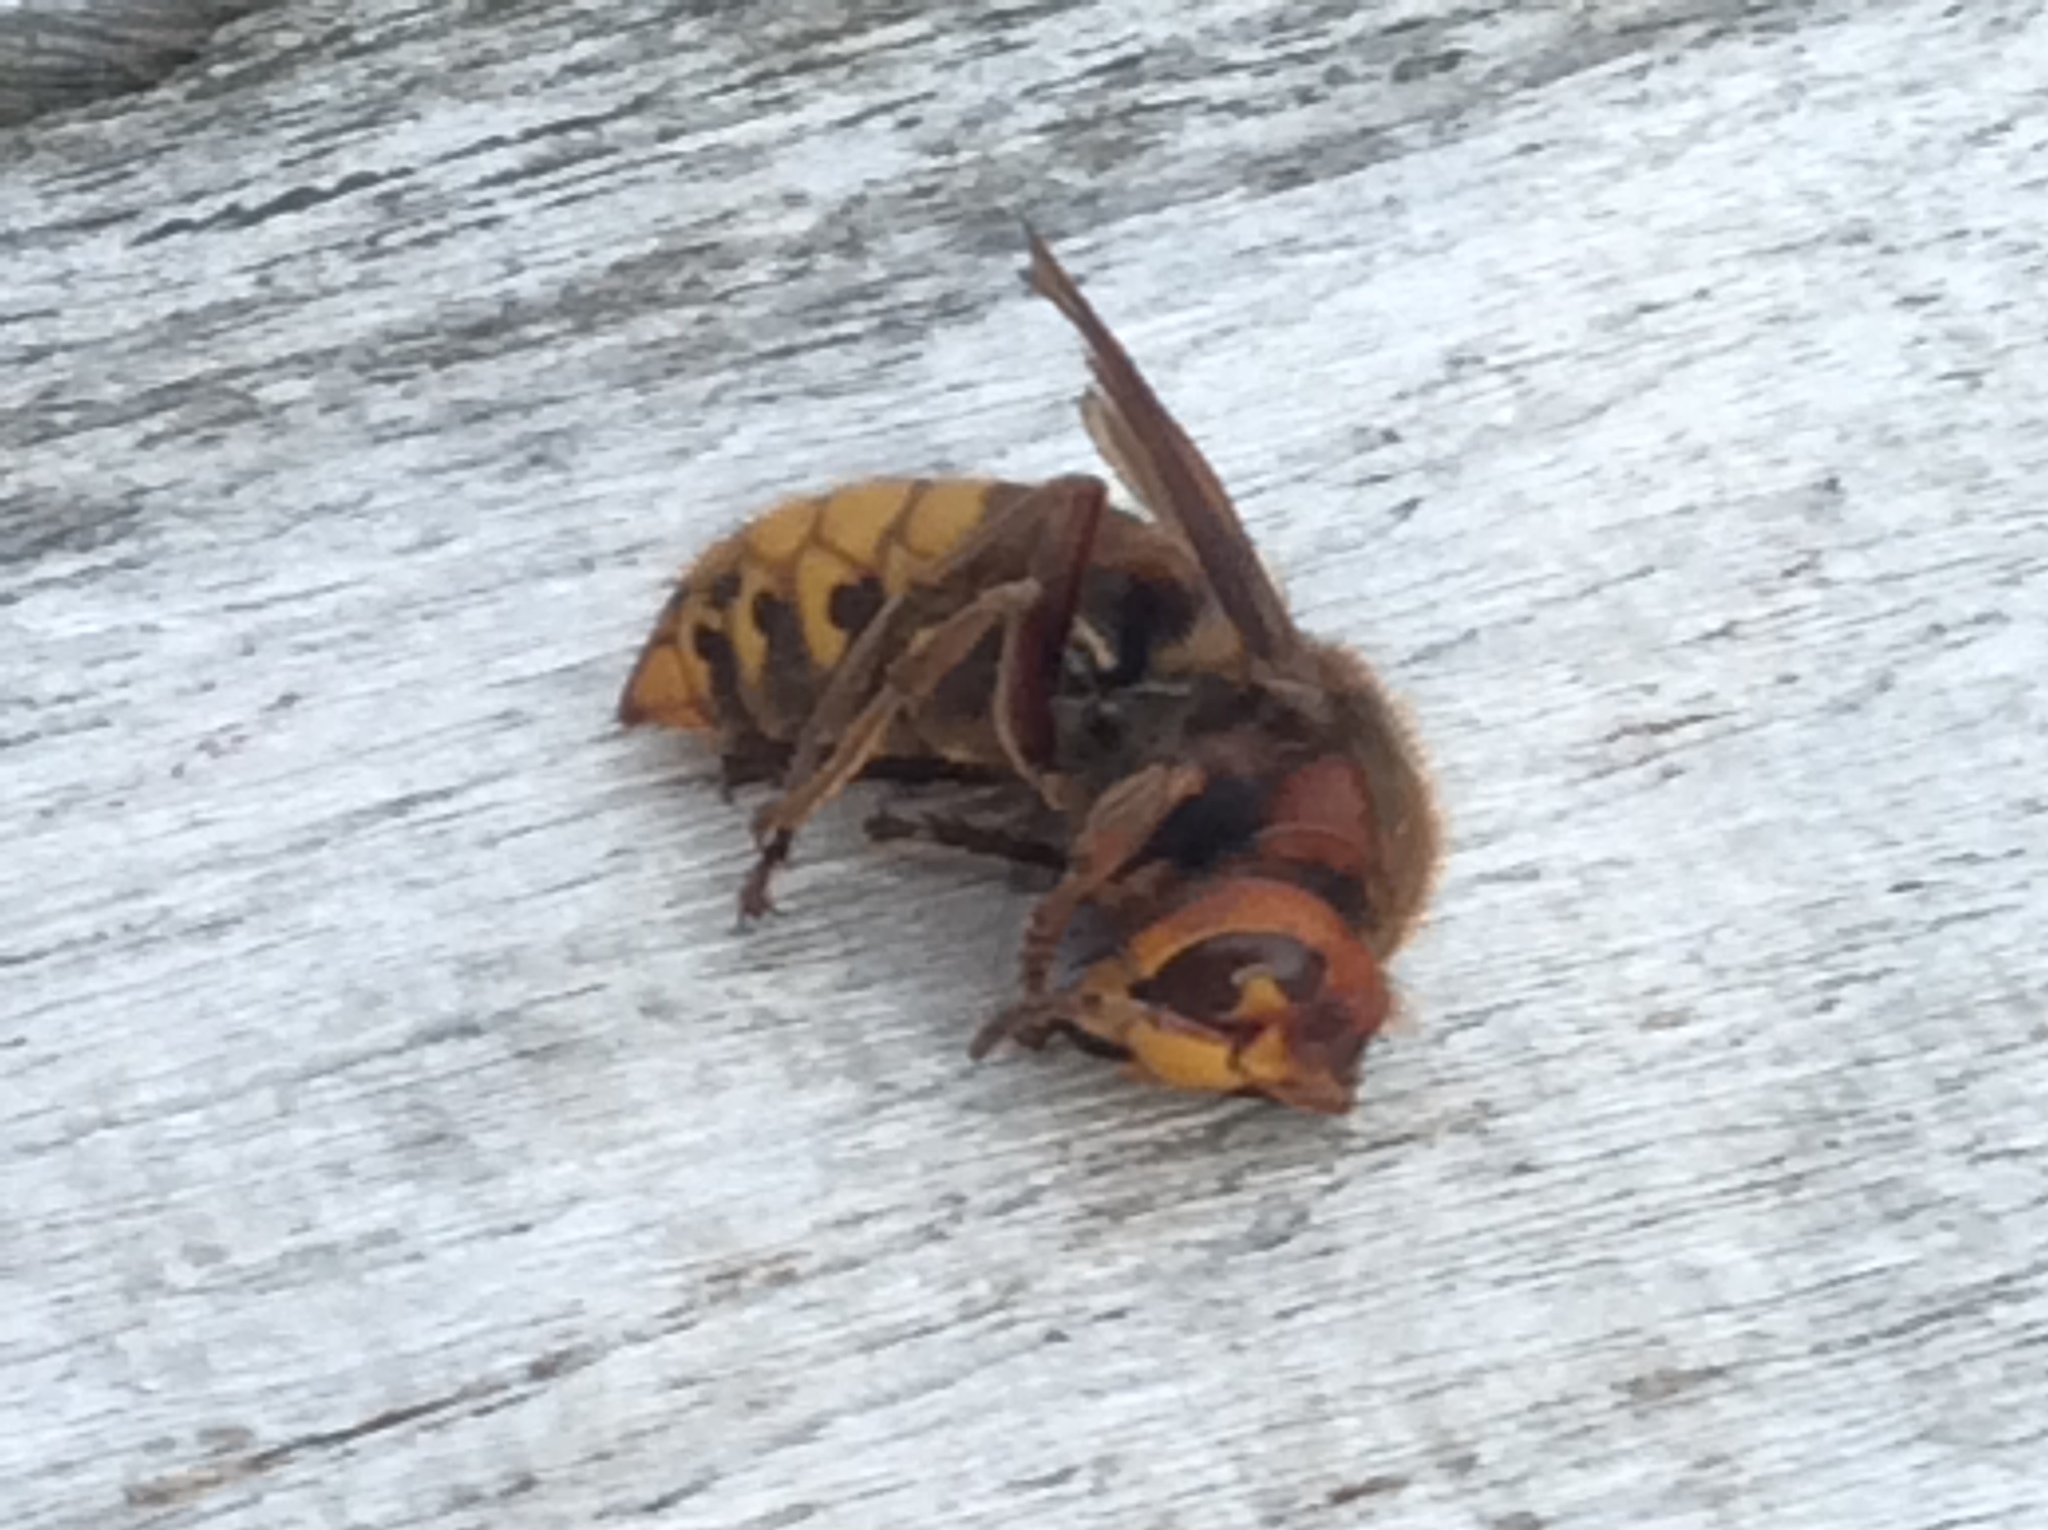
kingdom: Animalia
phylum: Arthropoda
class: Insecta
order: Hymenoptera
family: Vespidae
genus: Vespa
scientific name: Vespa crabro
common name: Hornet
